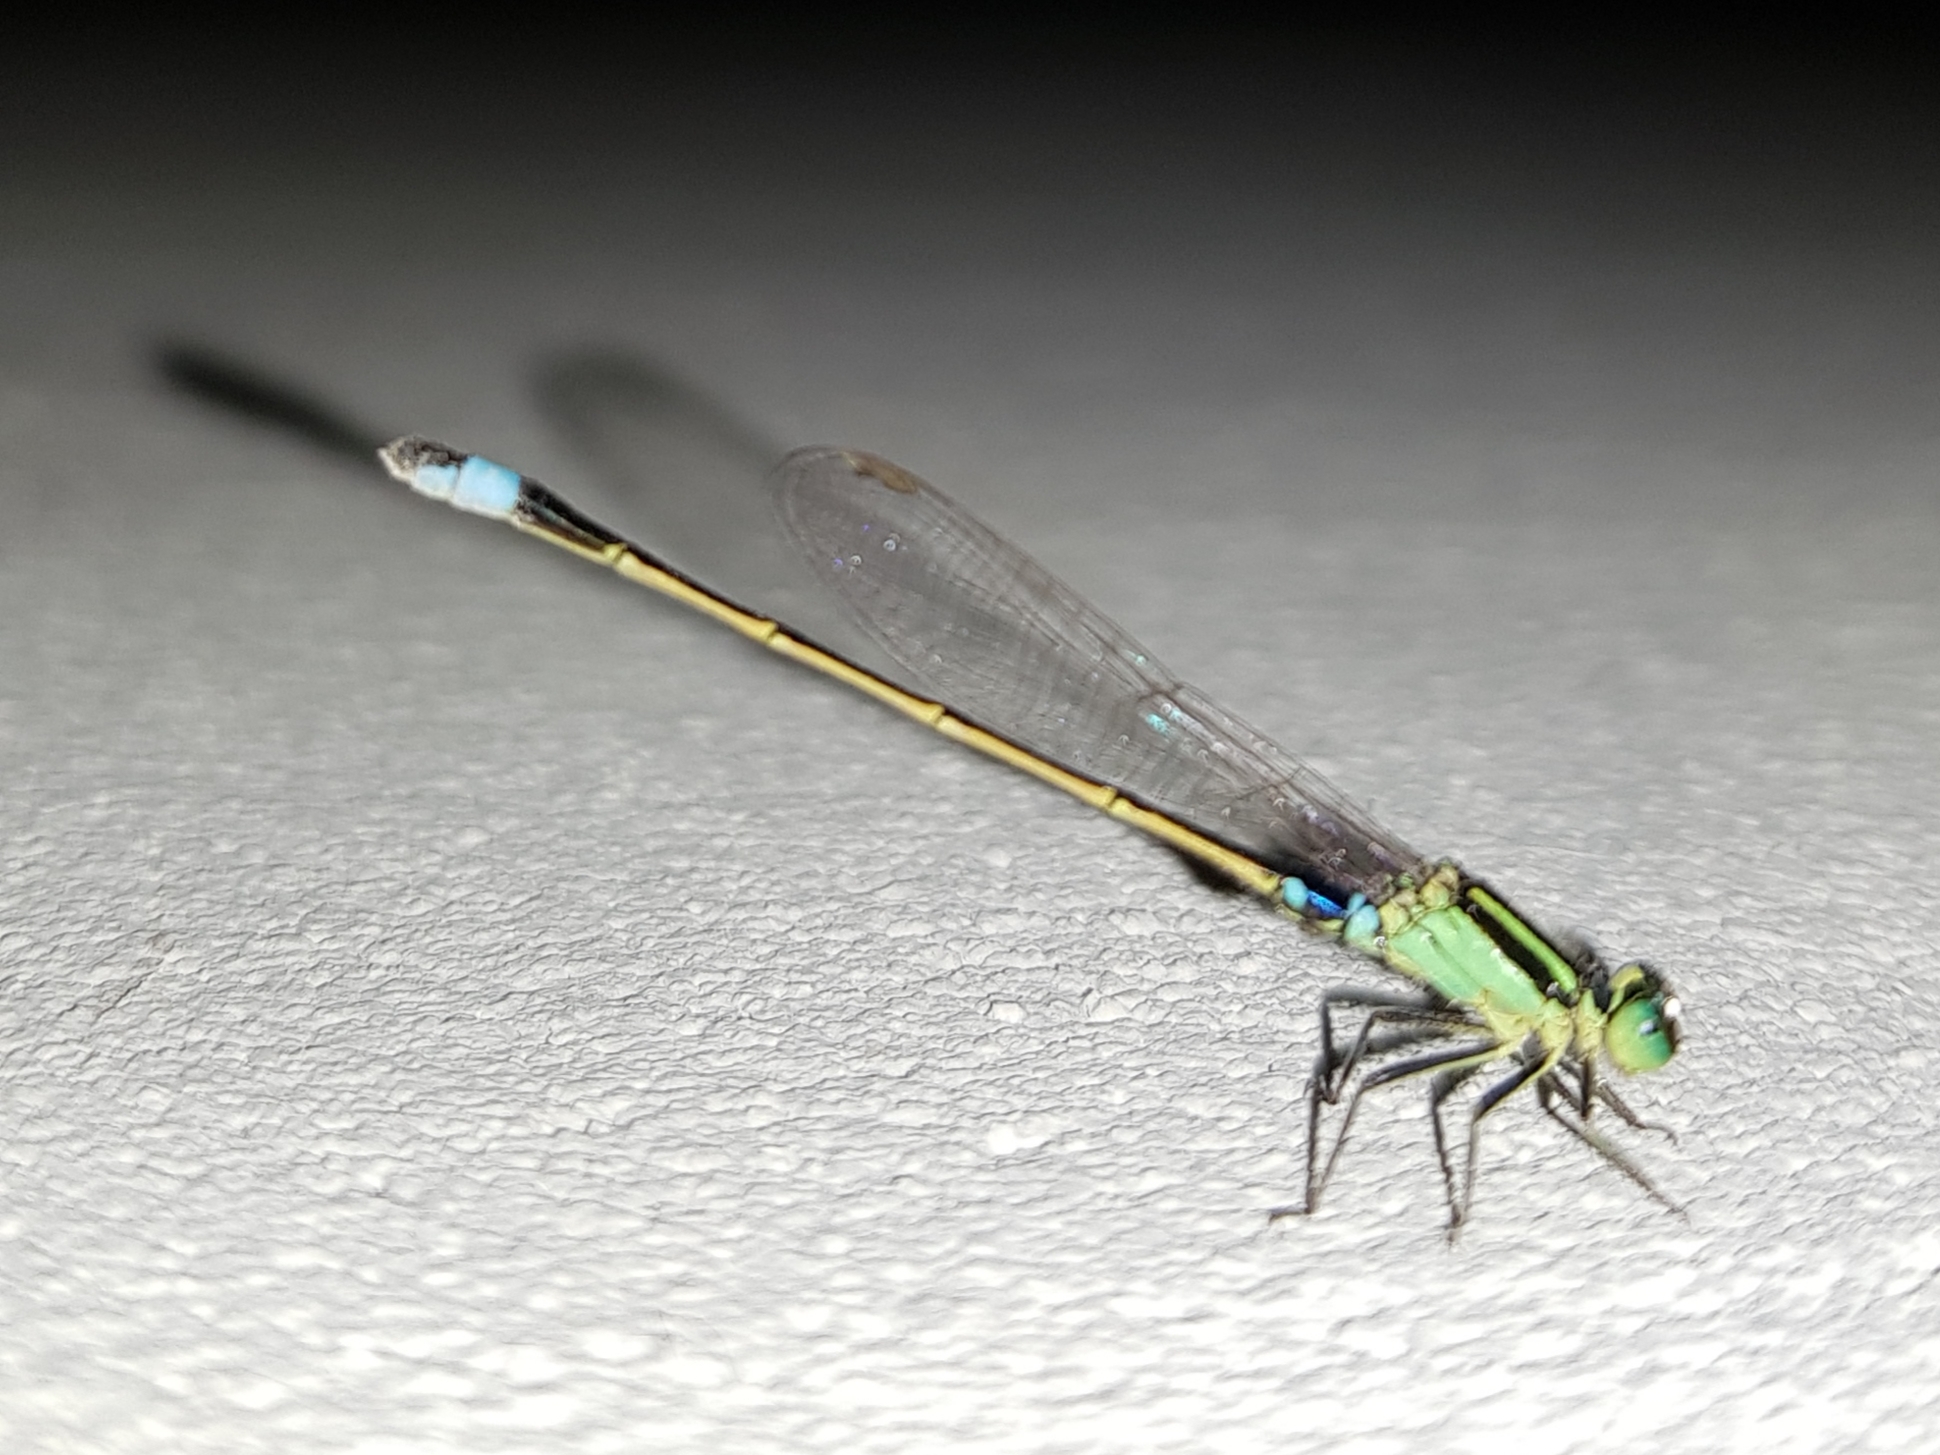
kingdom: Animalia
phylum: Arthropoda
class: Insecta
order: Odonata
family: Coenagrionidae
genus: Ischnura
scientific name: Ischnura senegalensis
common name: Tropical bluetail
